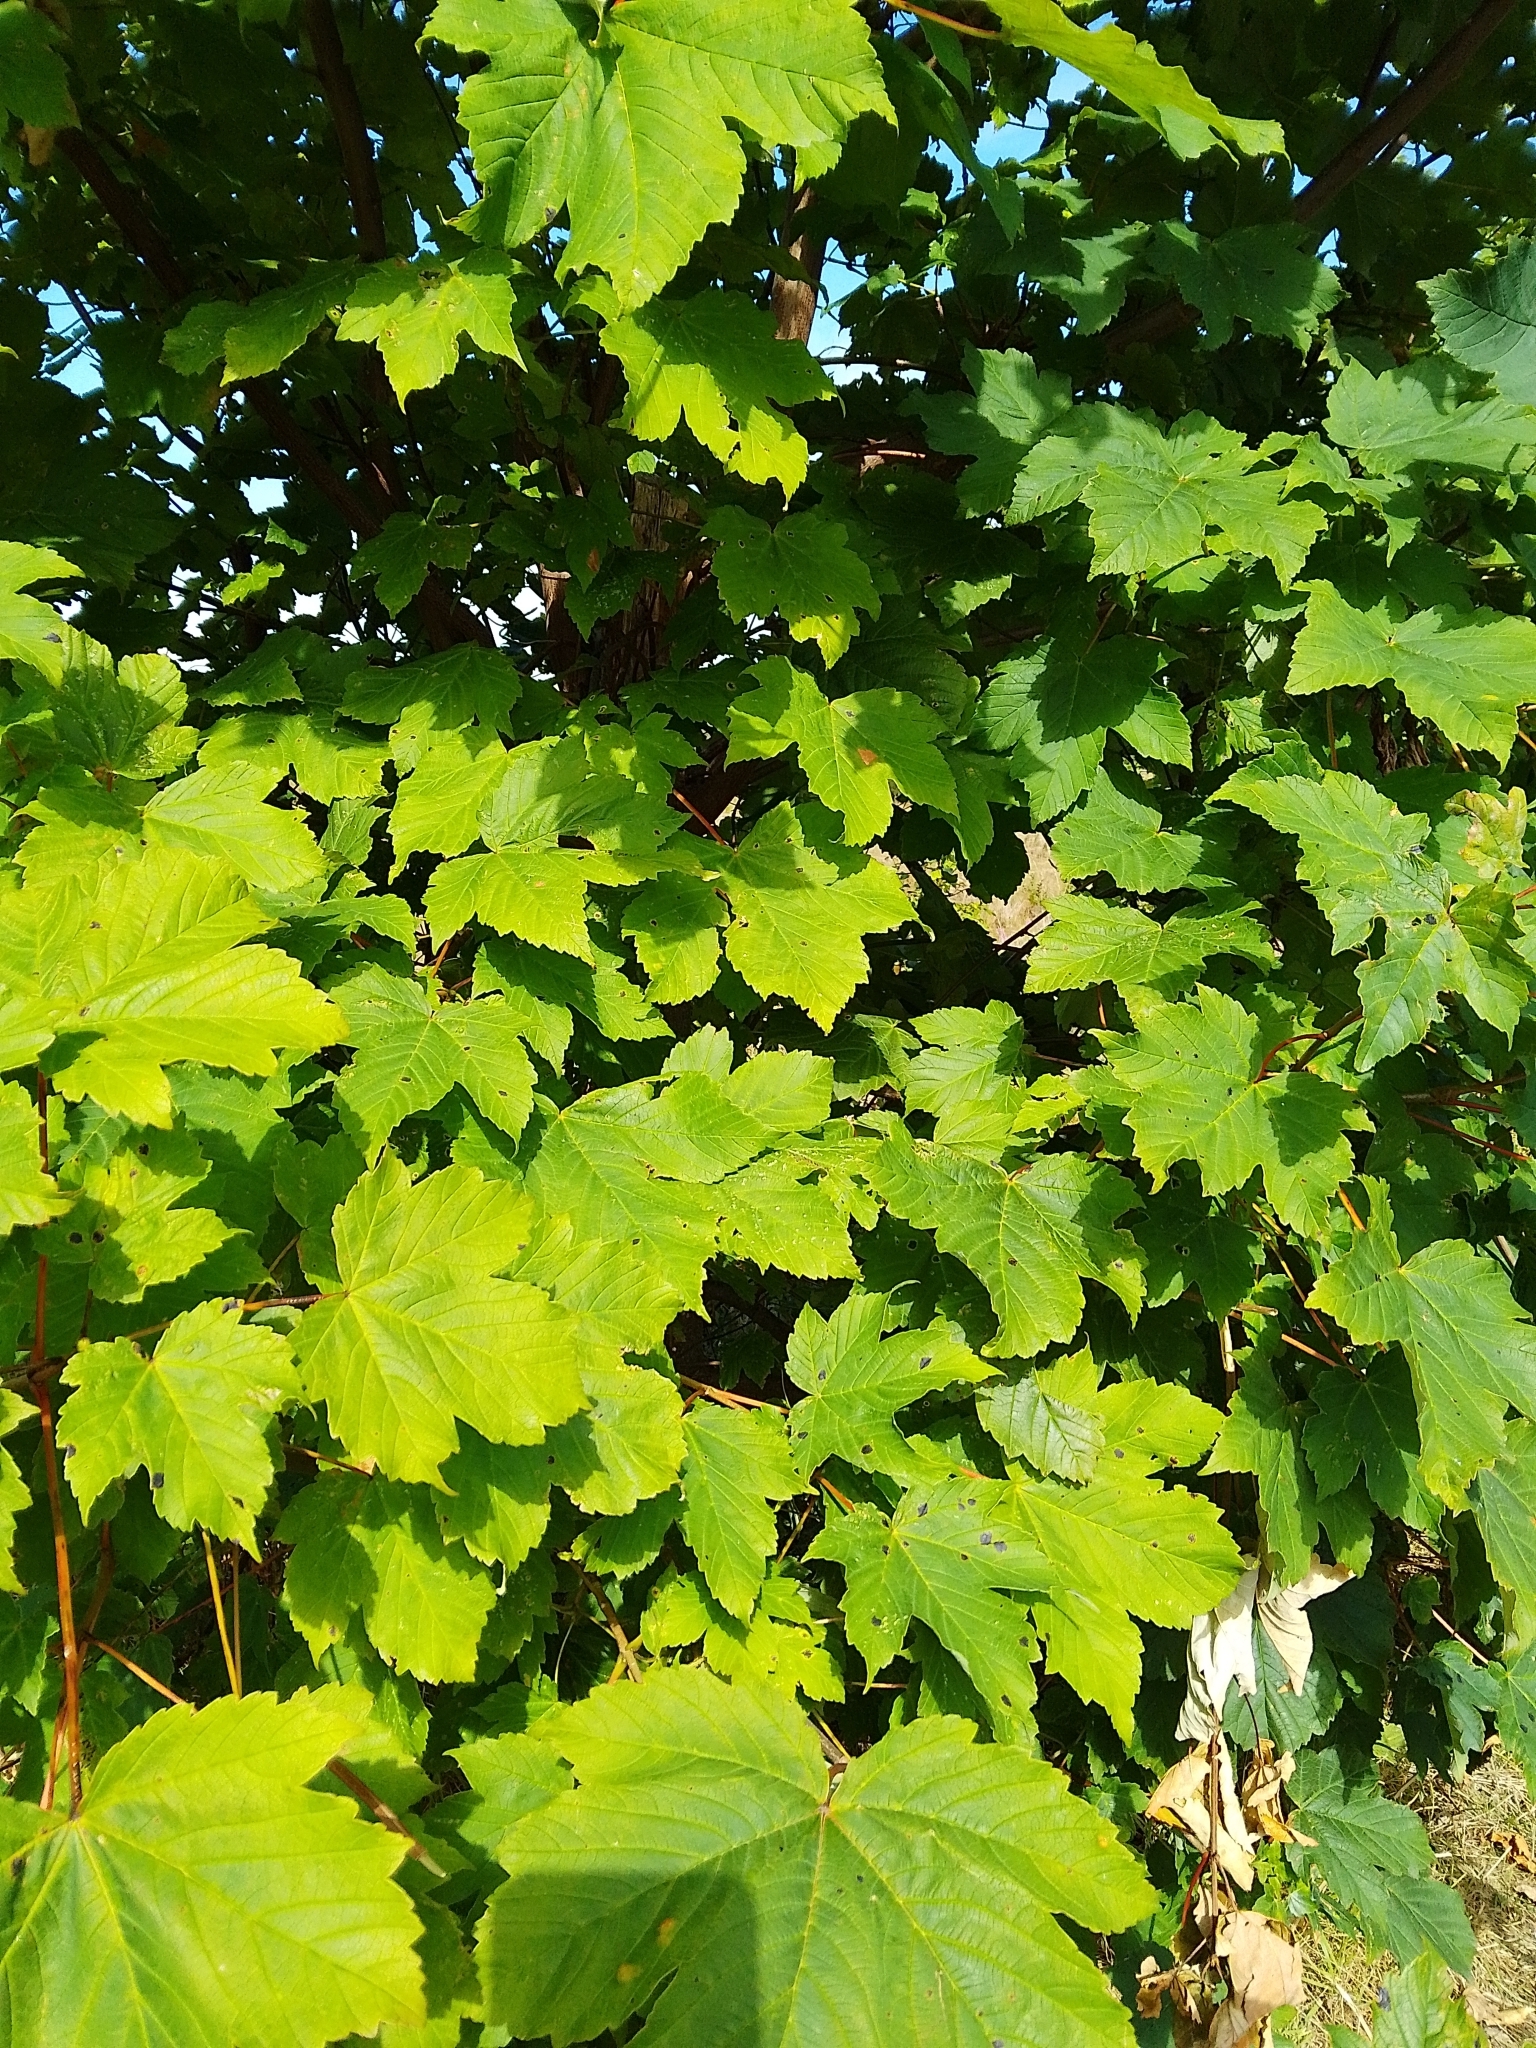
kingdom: Plantae
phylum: Tracheophyta
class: Magnoliopsida
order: Sapindales
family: Sapindaceae
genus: Acer
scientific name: Acer pseudoplatanus
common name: Sycamore
